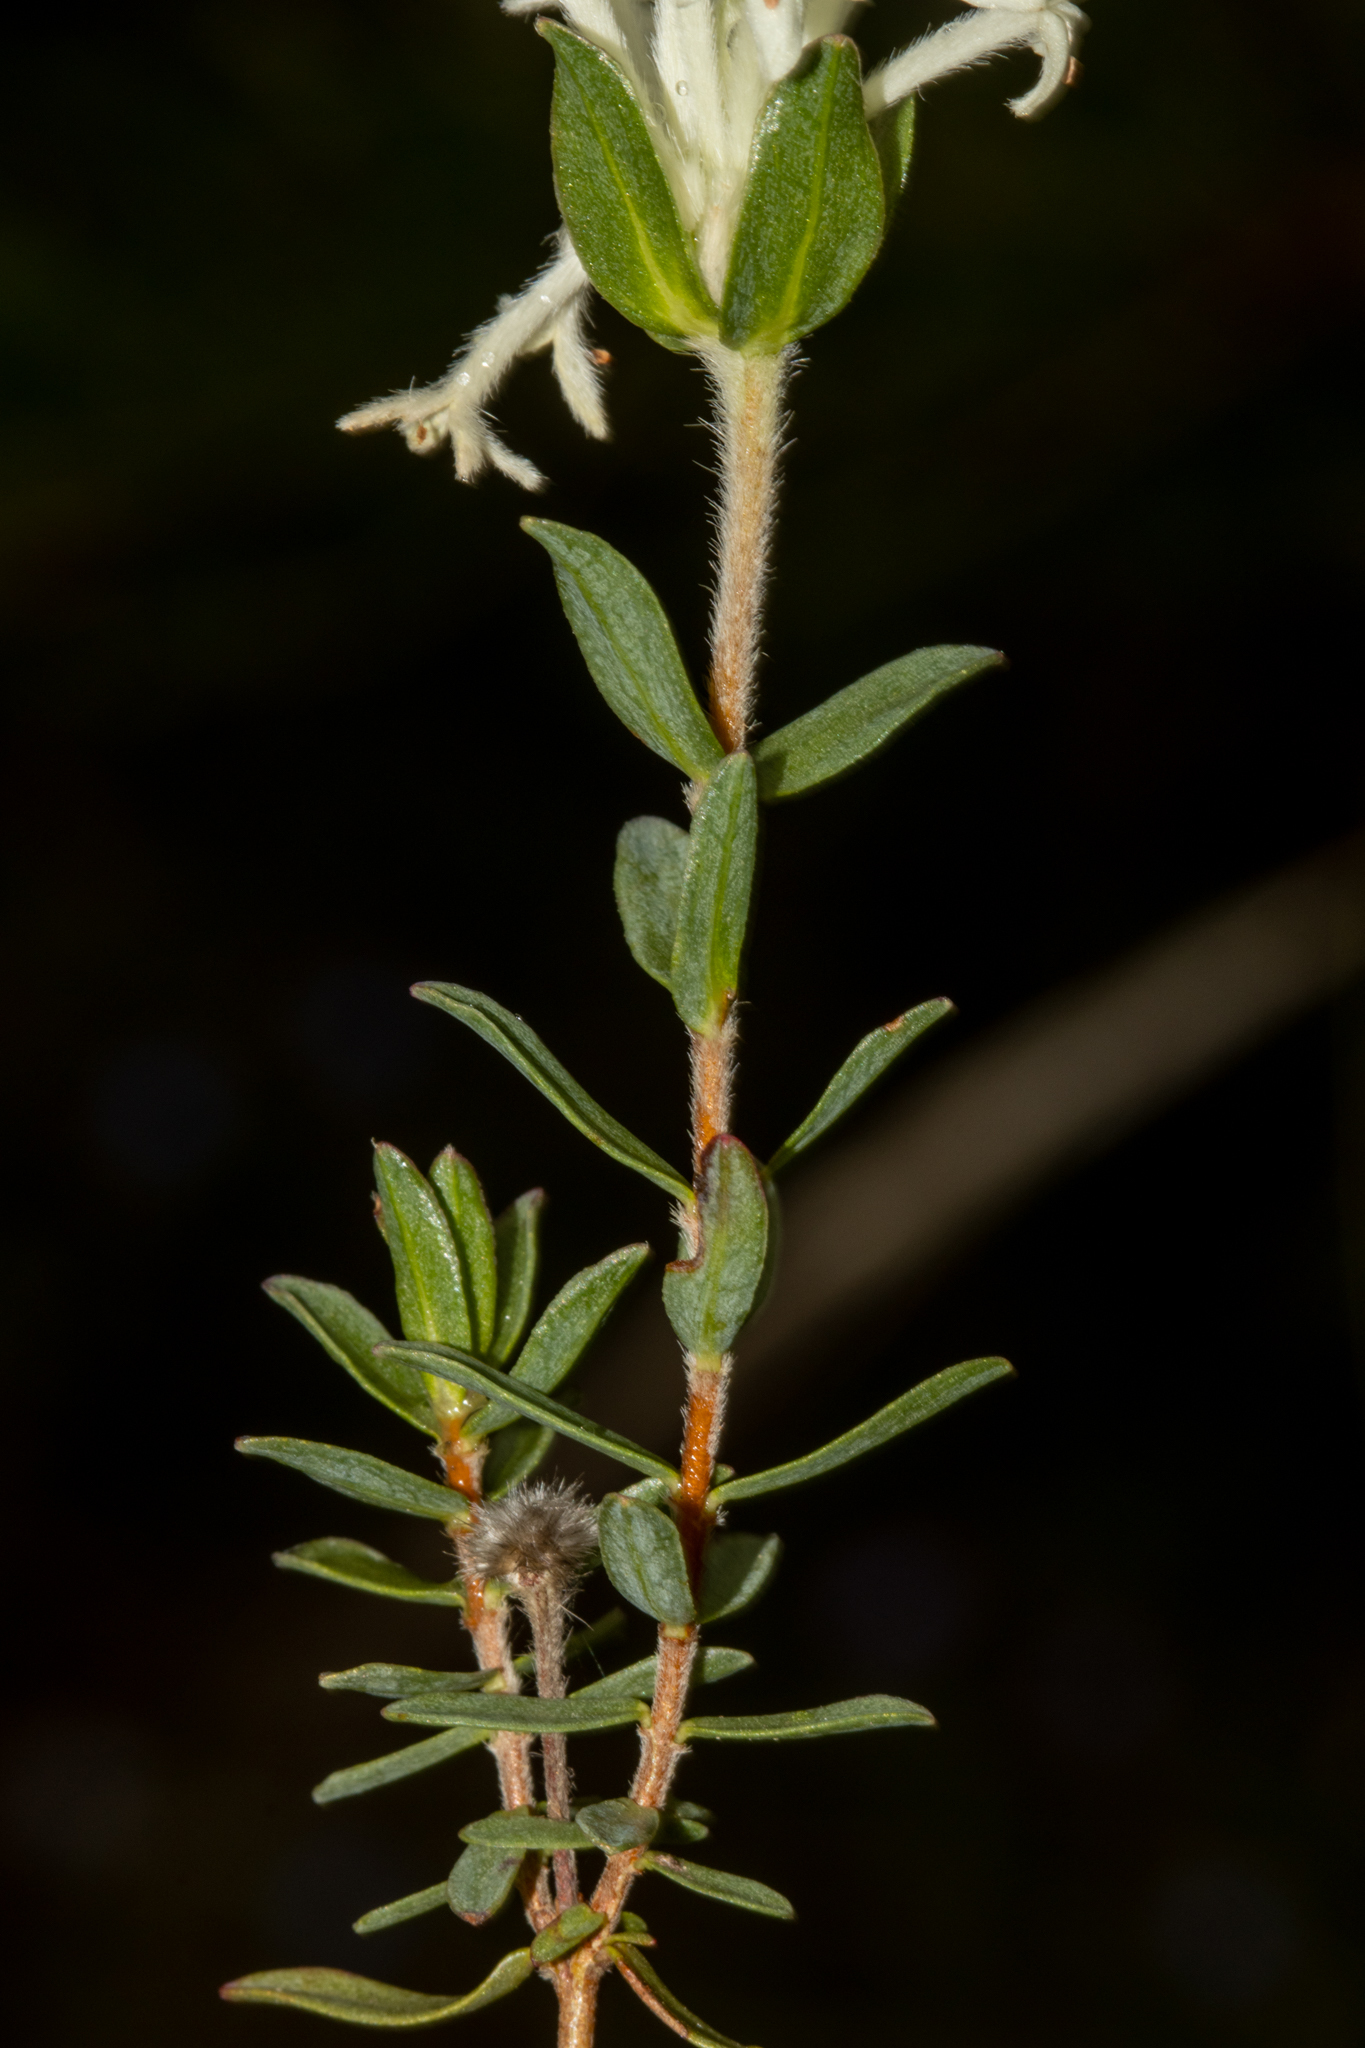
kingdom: Plantae
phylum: Tracheophyta
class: Magnoliopsida
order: Malvales
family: Thymelaeaceae
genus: Pimelea
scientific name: Pimelea humilis
